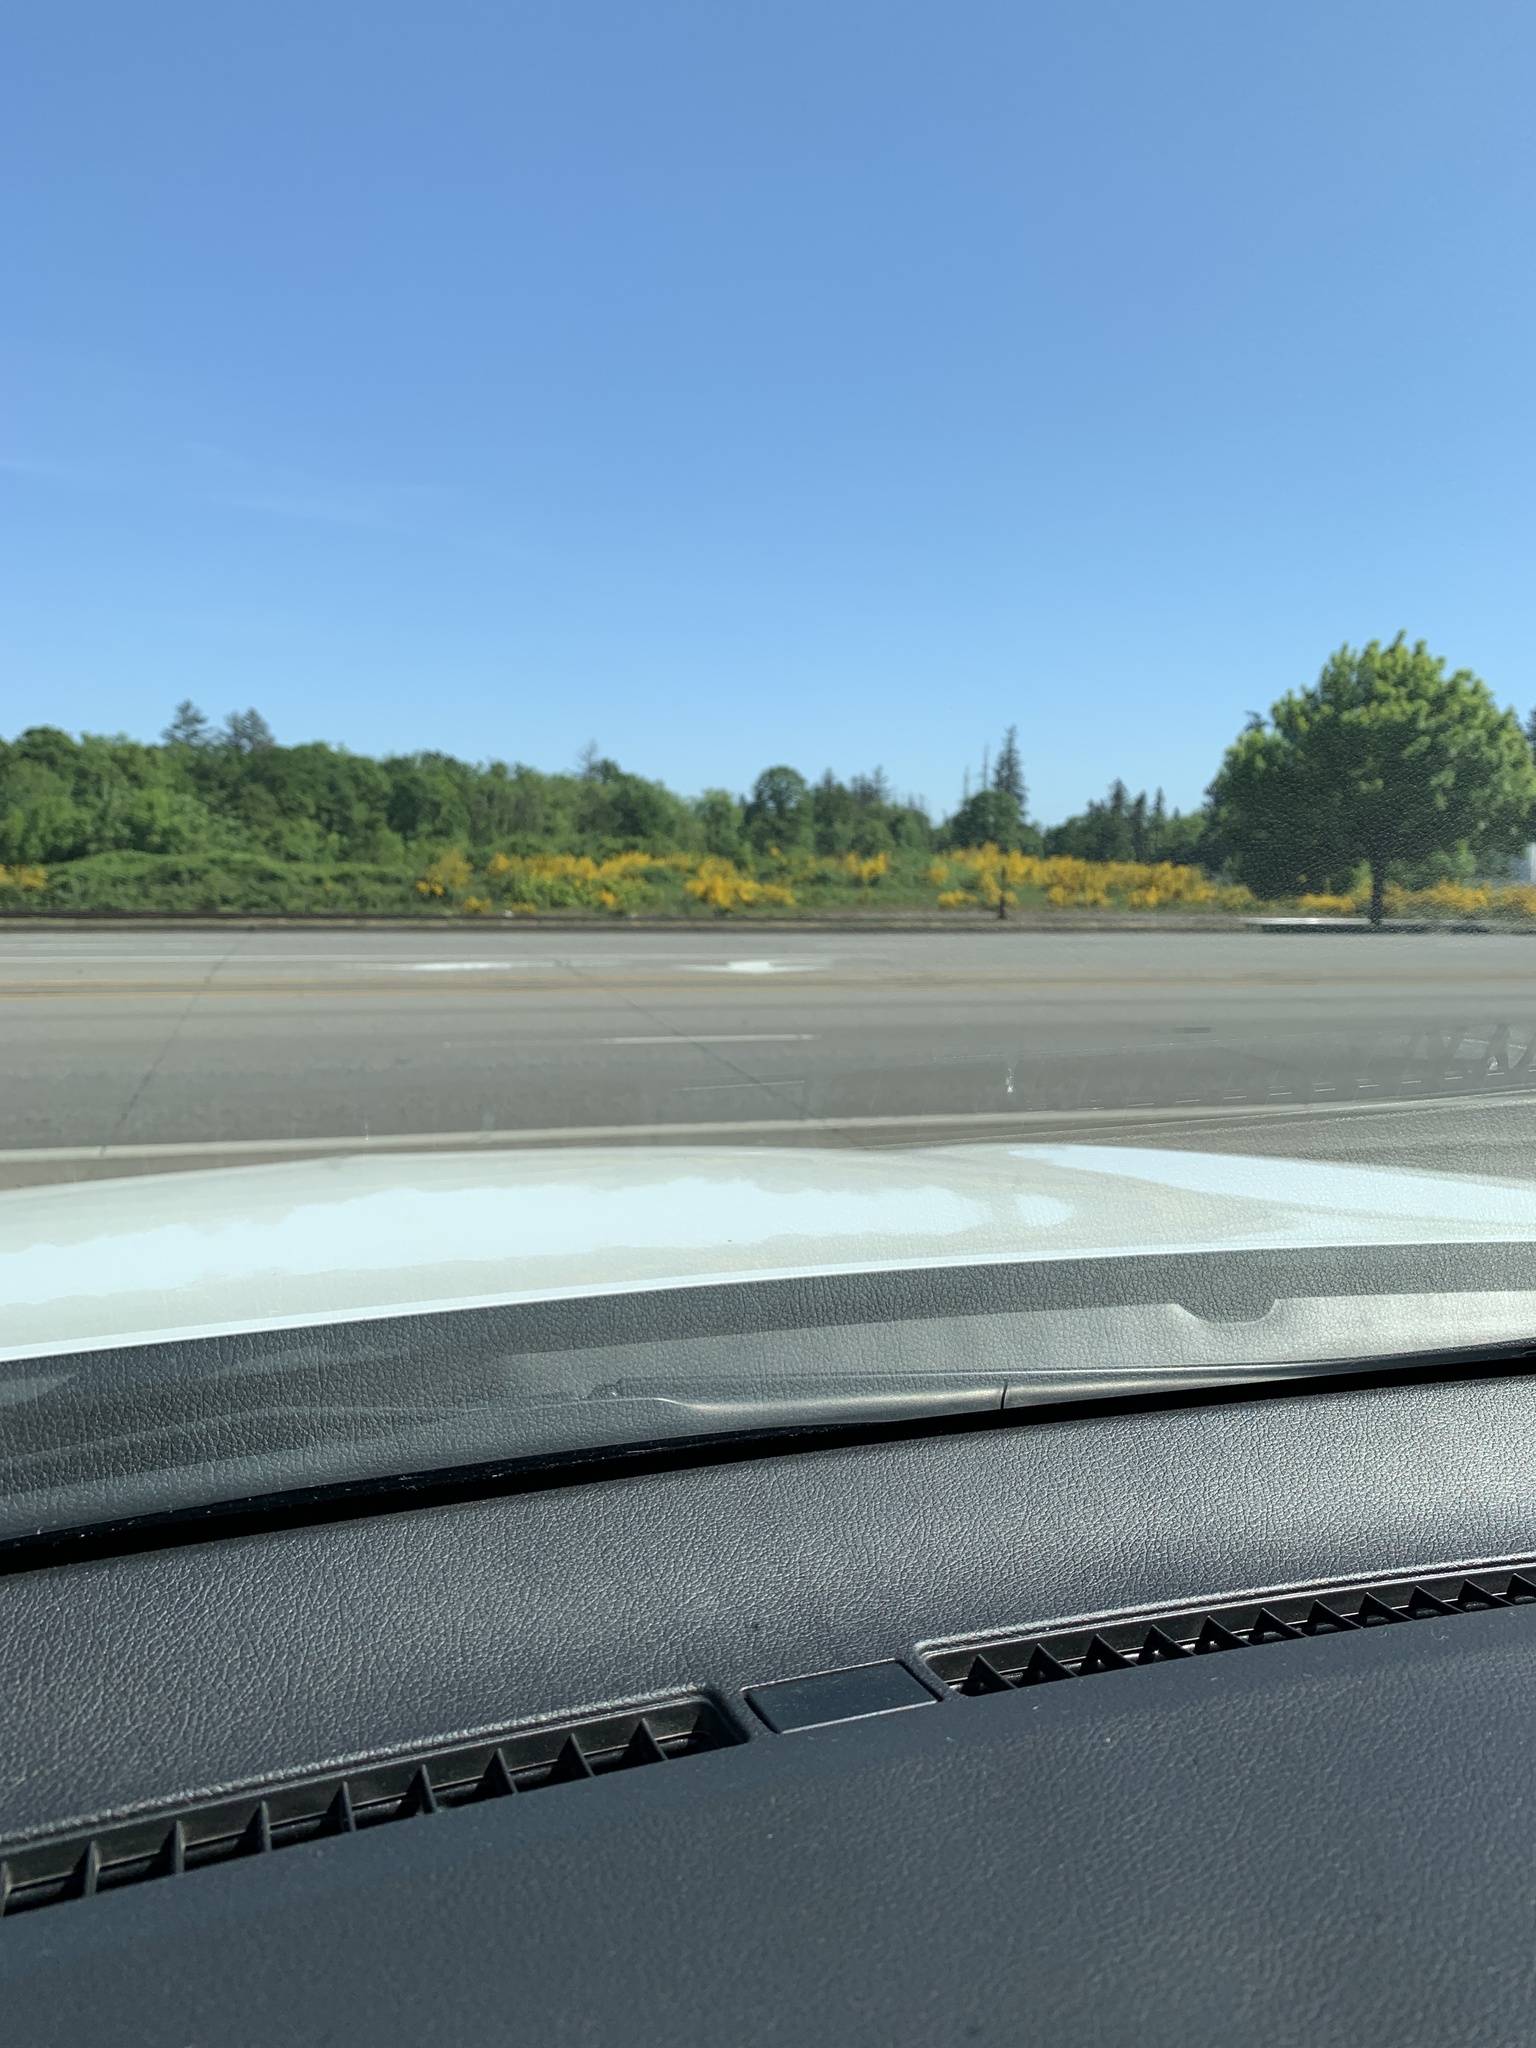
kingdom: Plantae
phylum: Tracheophyta
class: Magnoliopsida
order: Fabales
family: Fabaceae
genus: Cytisus
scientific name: Cytisus scoparius
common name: Scotch broom
